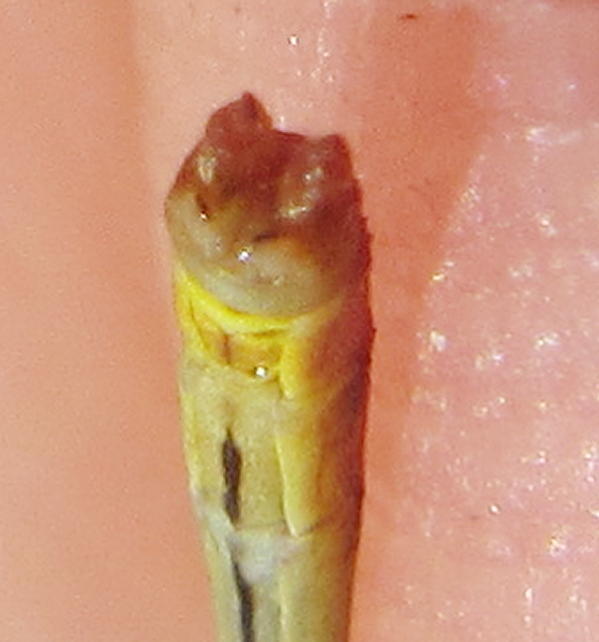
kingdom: Animalia
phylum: Arthropoda
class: Insecta
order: Odonata
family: Coenagrionidae
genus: Agriocnemis
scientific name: Agriocnemis falcifera
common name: White-masked wisp
